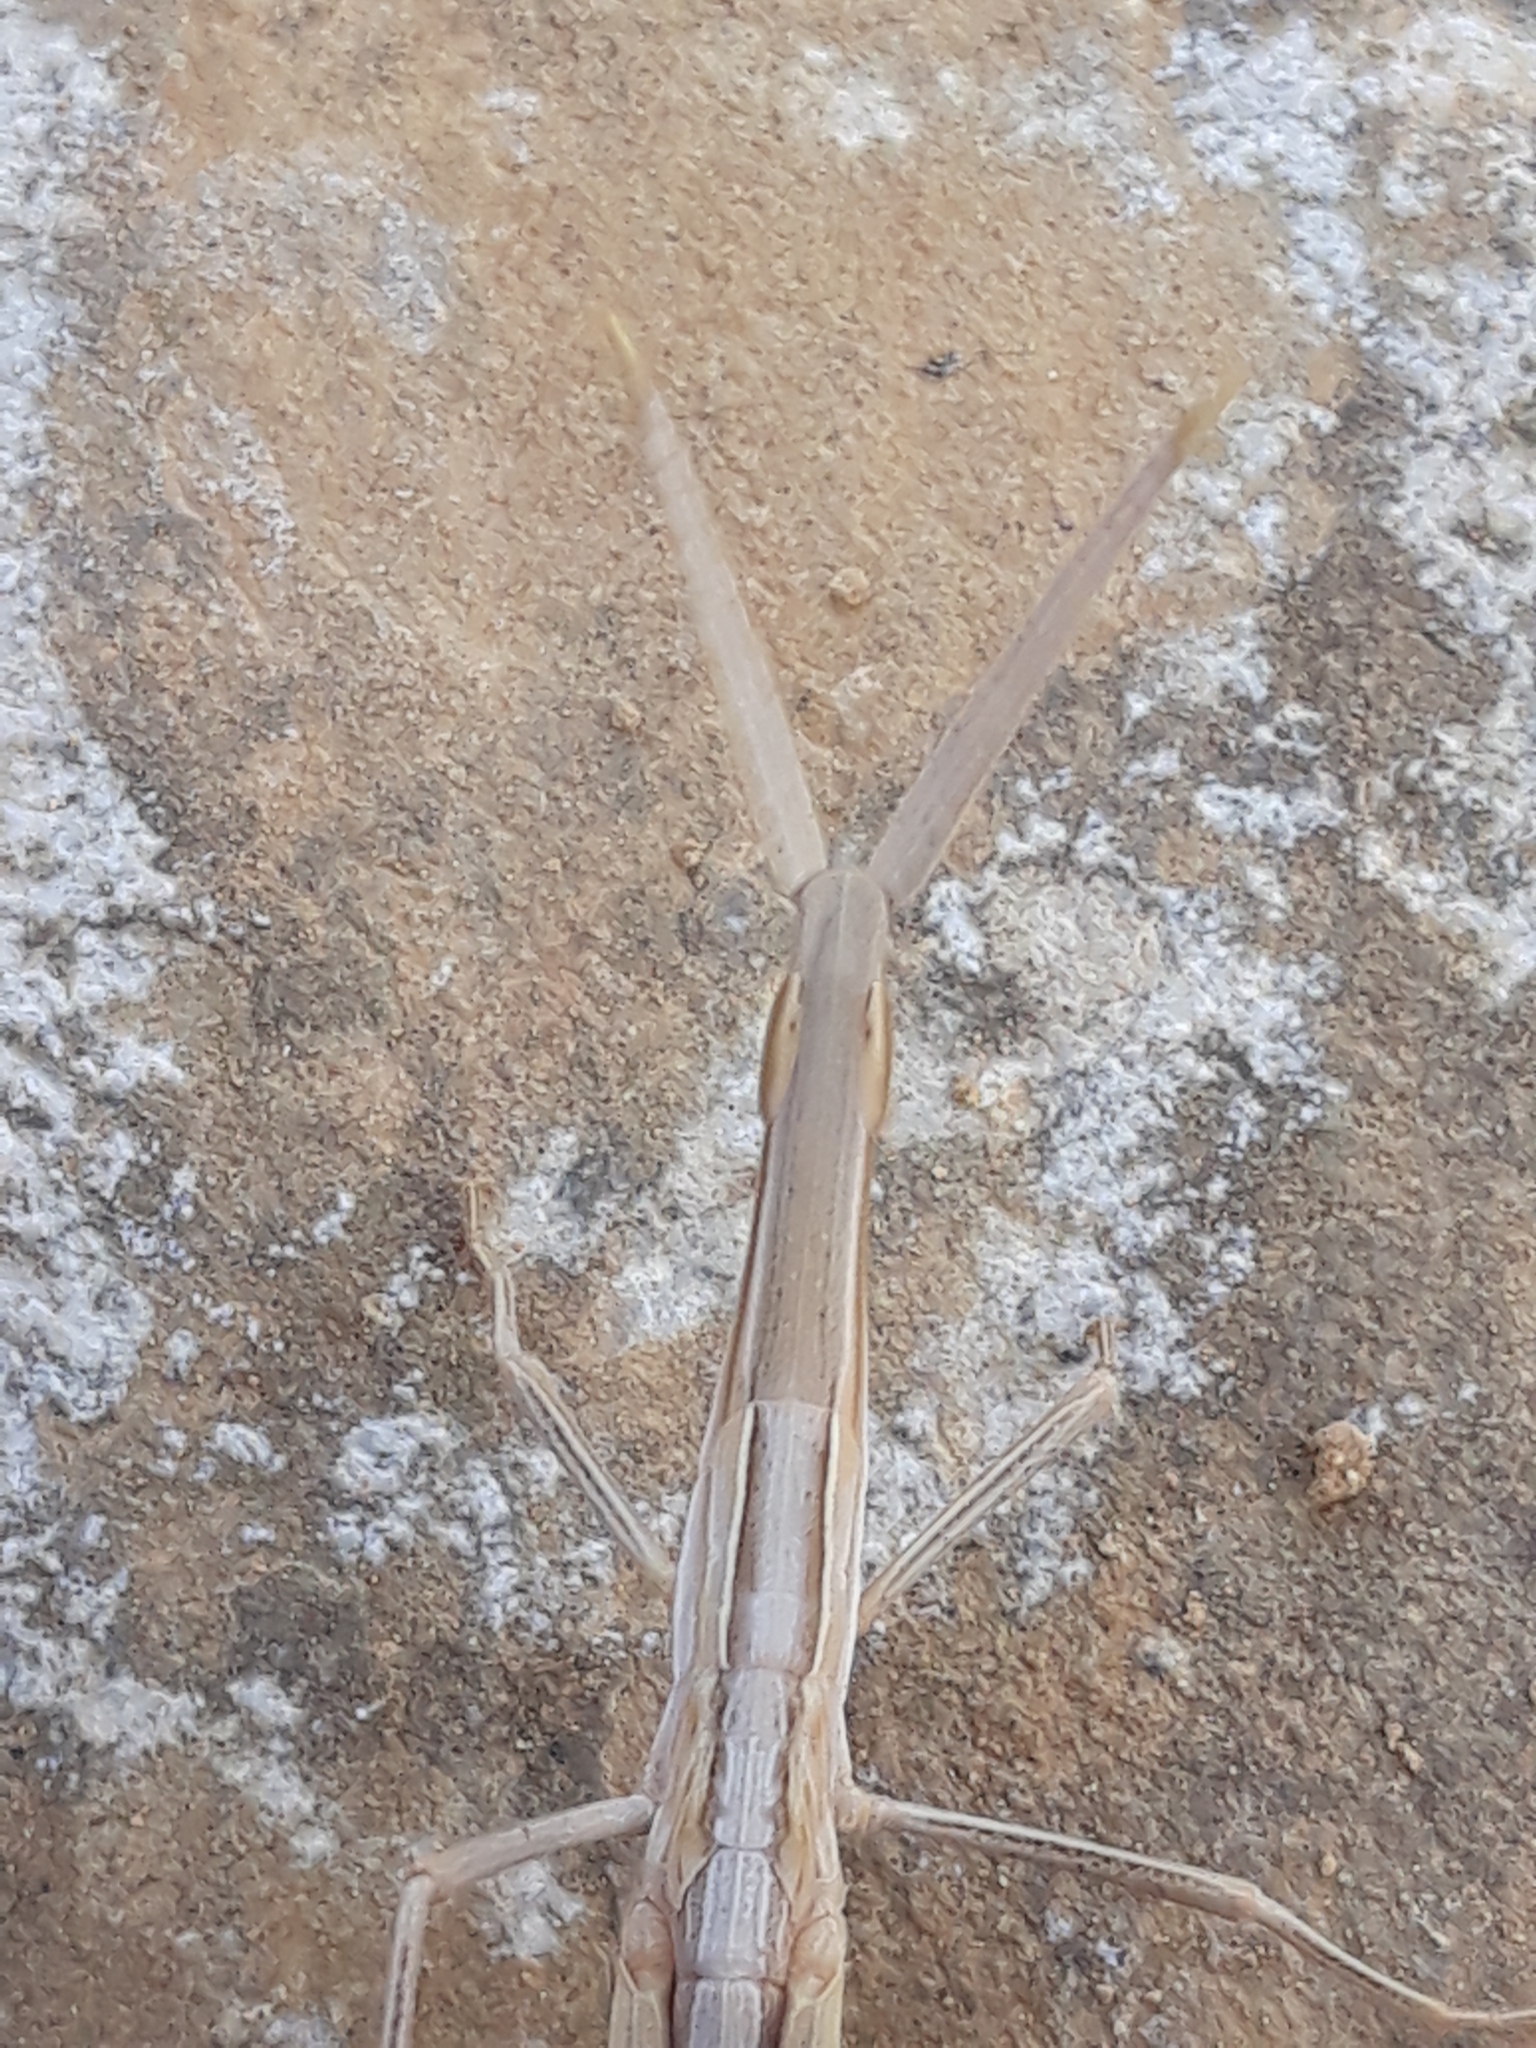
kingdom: Animalia
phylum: Arthropoda
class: Insecta
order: Orthoptera
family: Acrididae
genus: Acrida
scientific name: Acrida turrita
